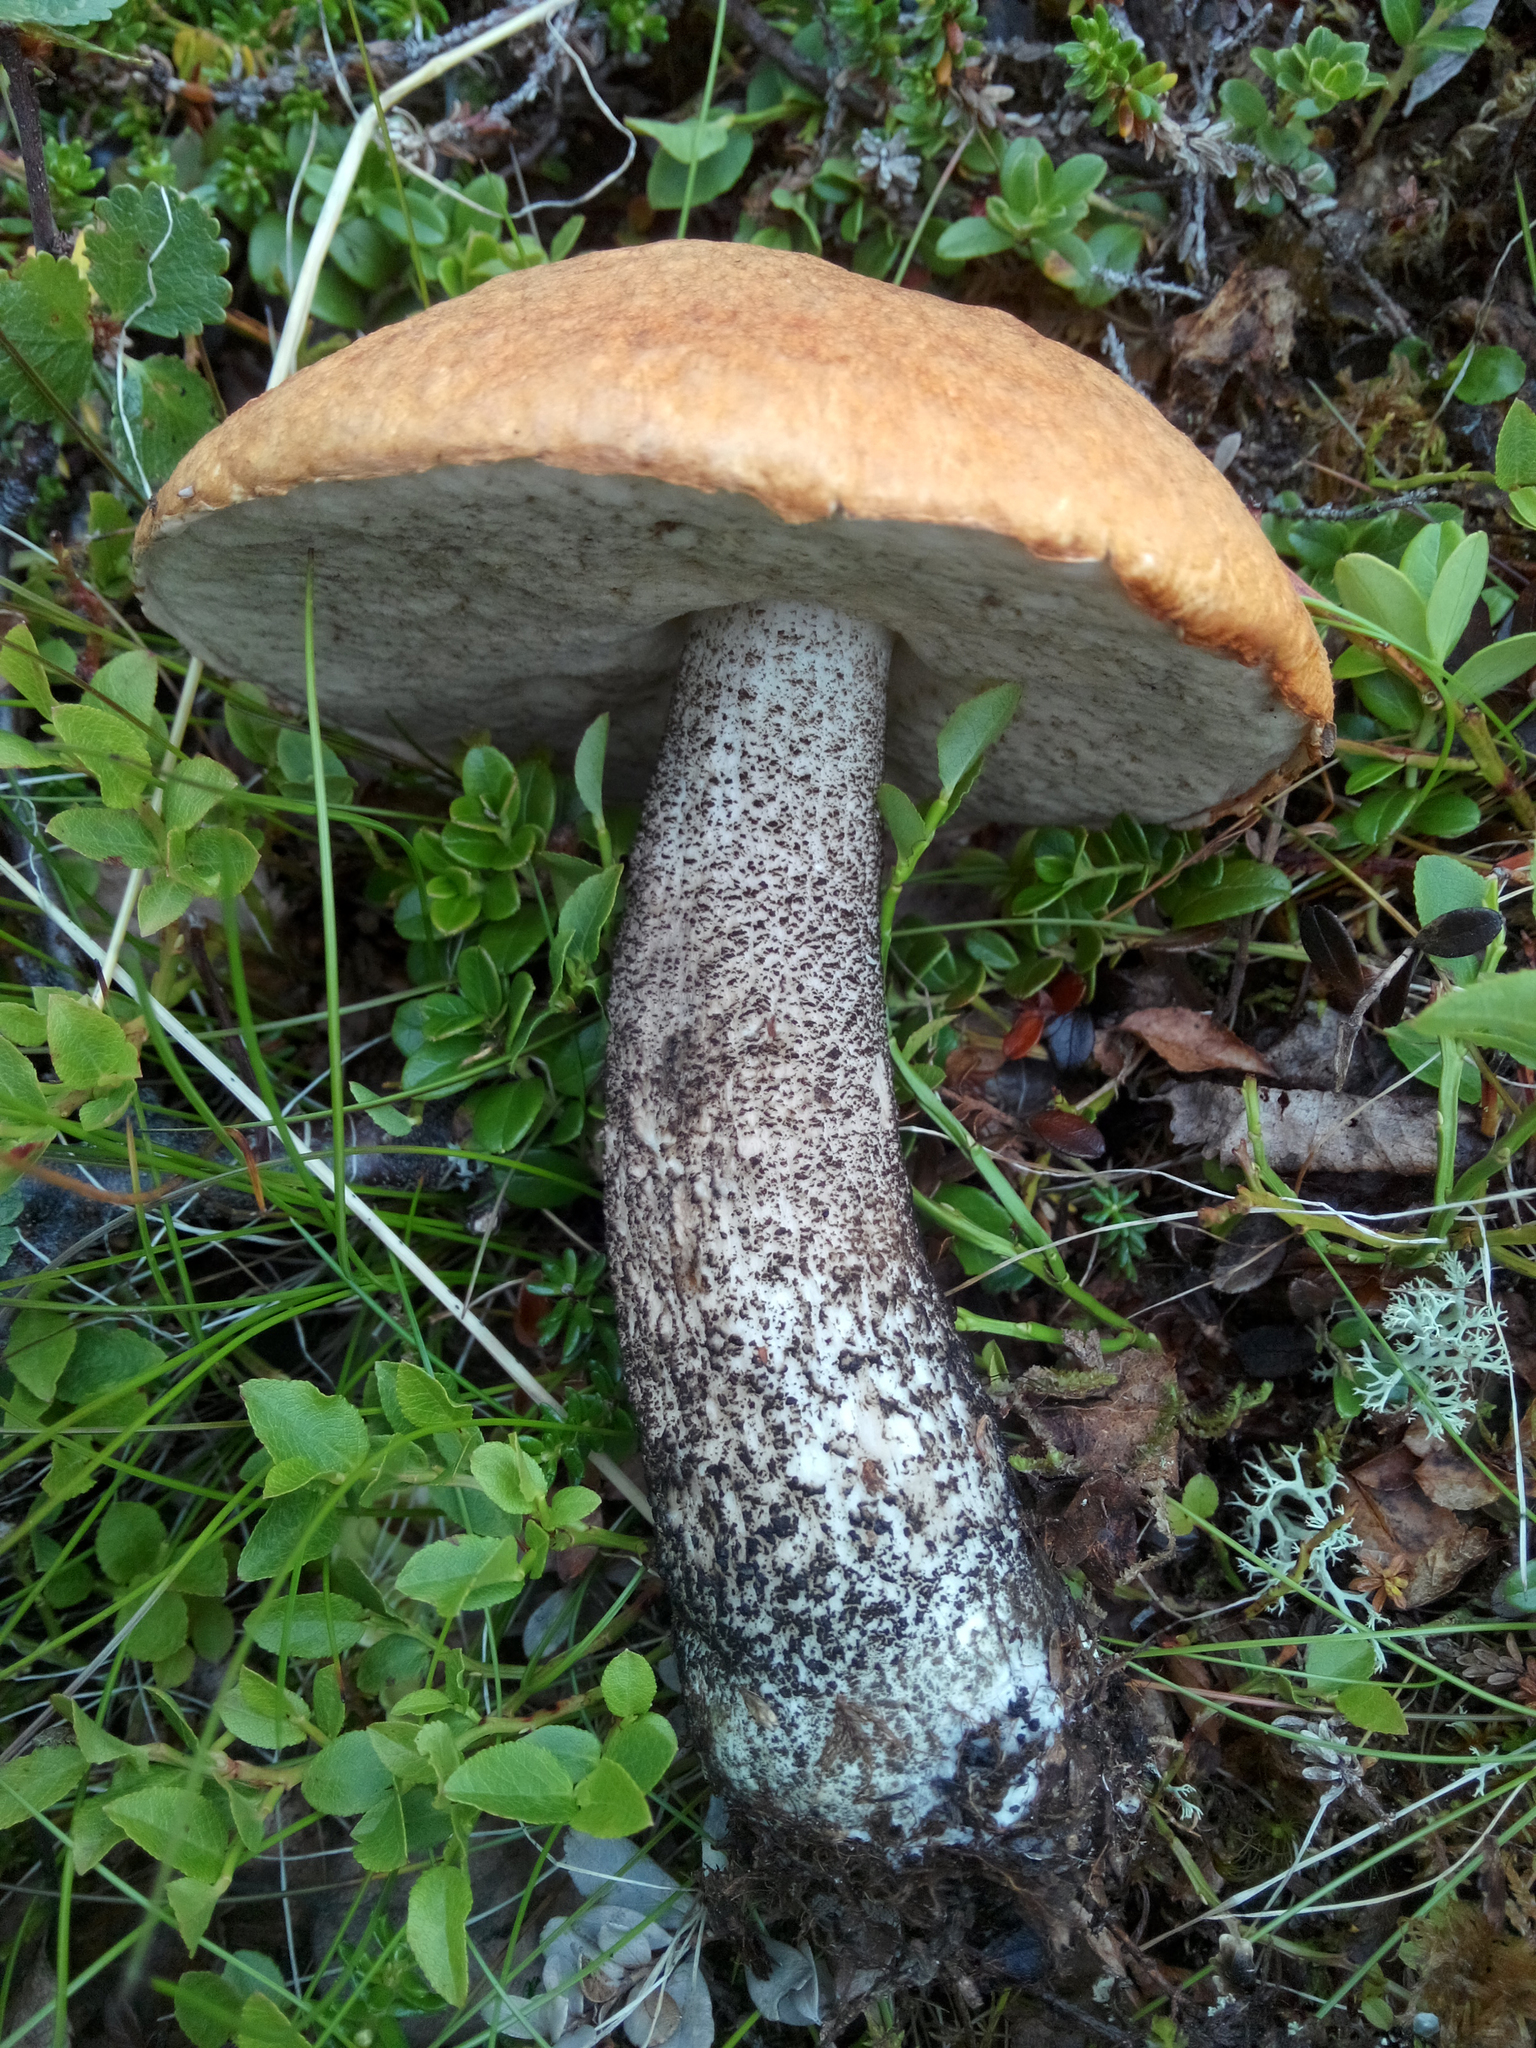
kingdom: Fungi
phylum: Basidiomycota
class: Agaricomycetes
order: Boletales
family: Boletaceae
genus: Leccinum
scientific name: Leccinum versipelle
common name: Orange birch bolete
